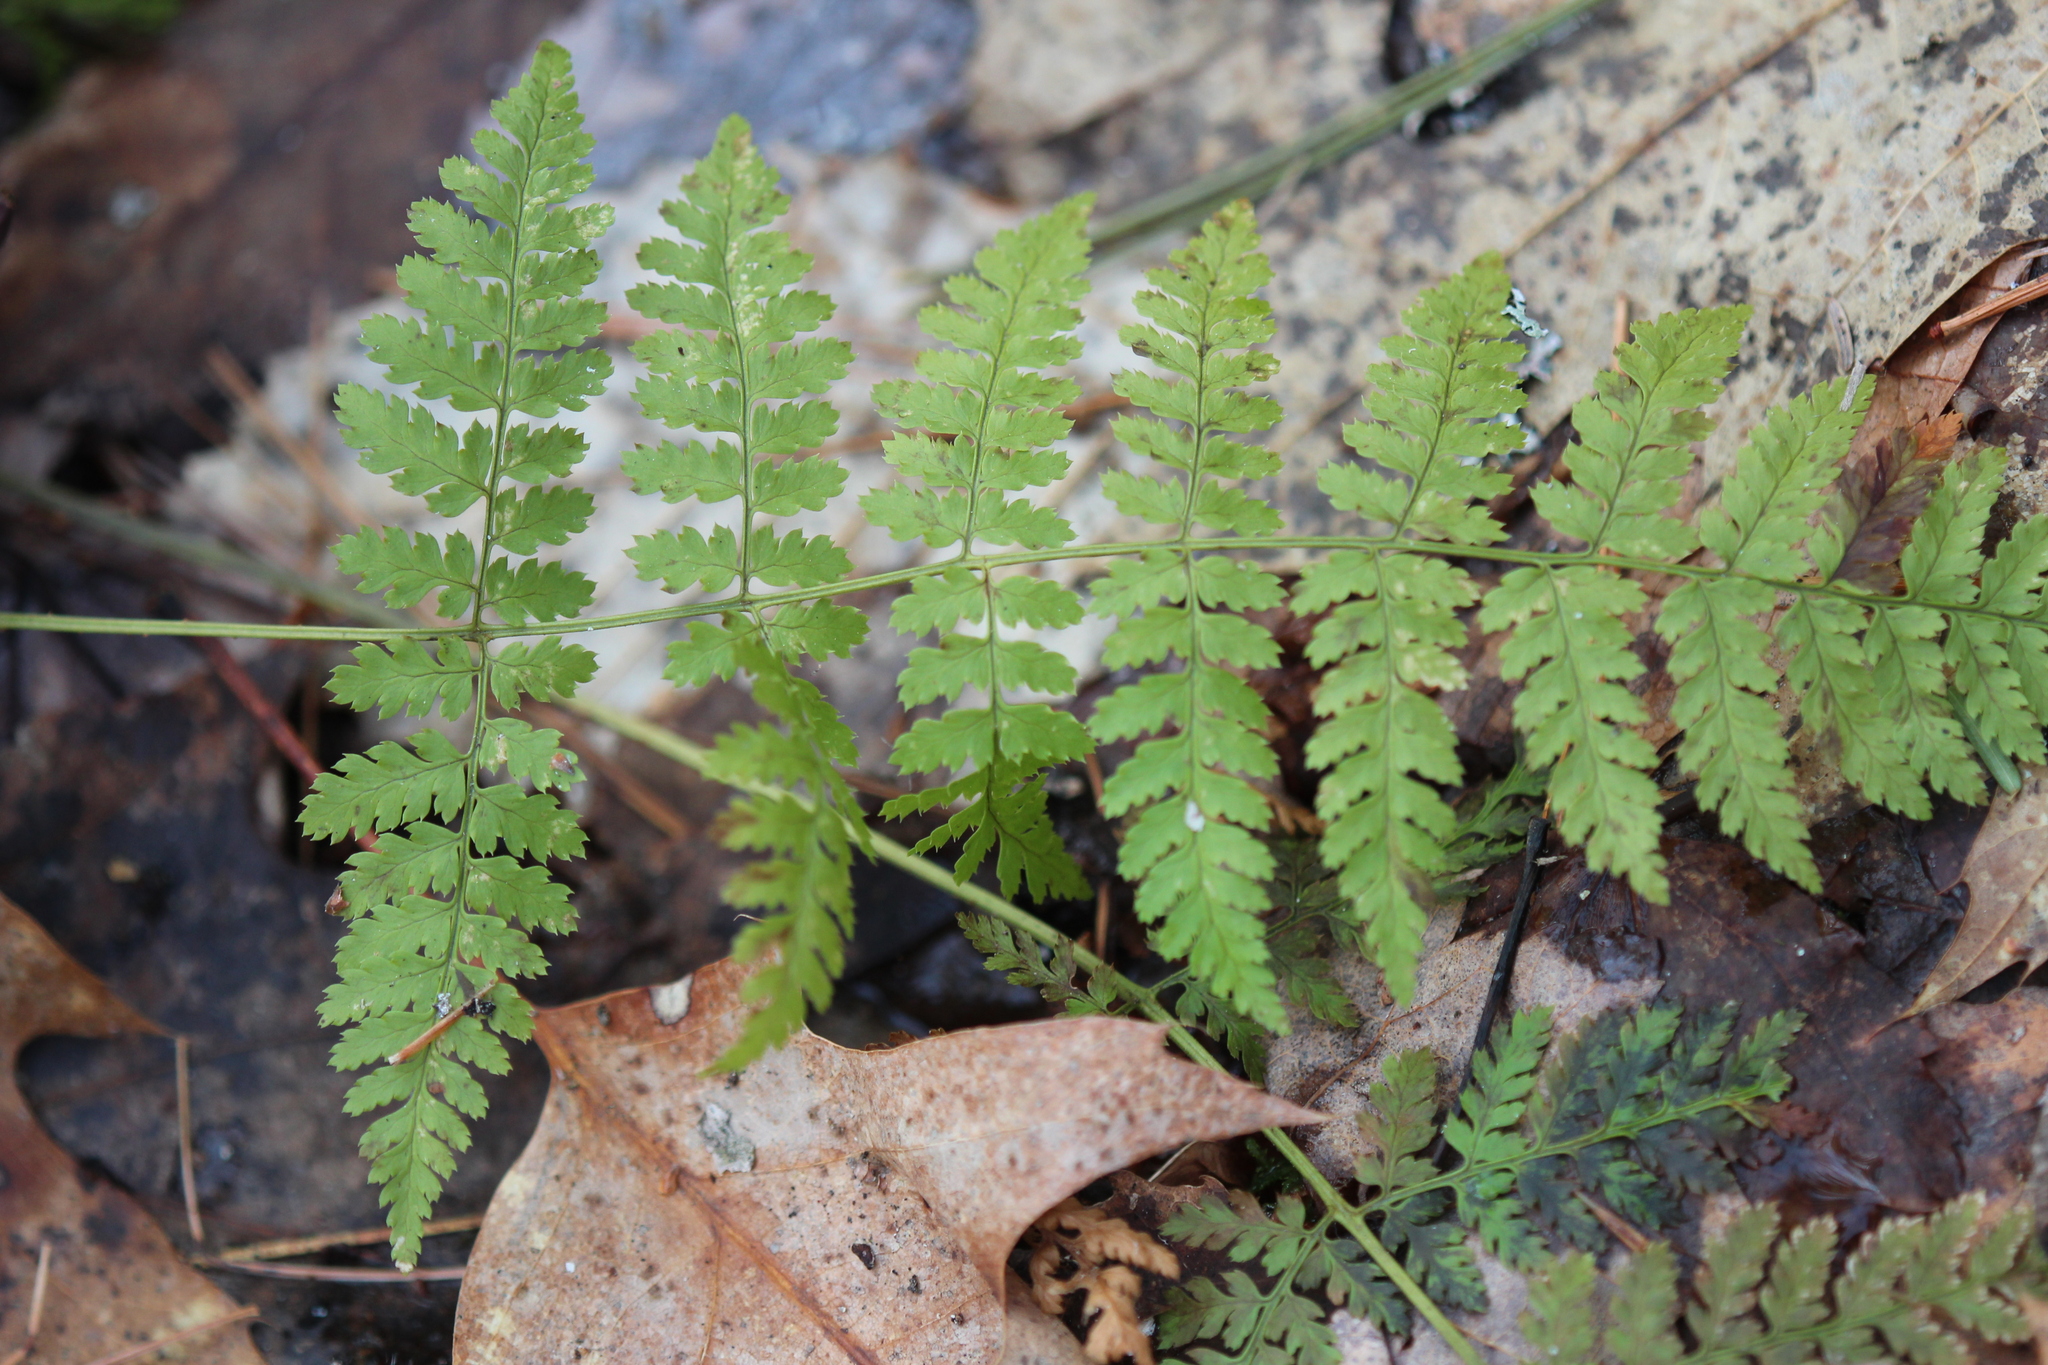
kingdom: Plantae
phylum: Tracheophyta
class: Polypodiopsida
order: Polypodiales
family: Dryopteridaceae
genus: Dryopteris
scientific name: Dryopteris intermedia
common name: Evergreen wood fern
